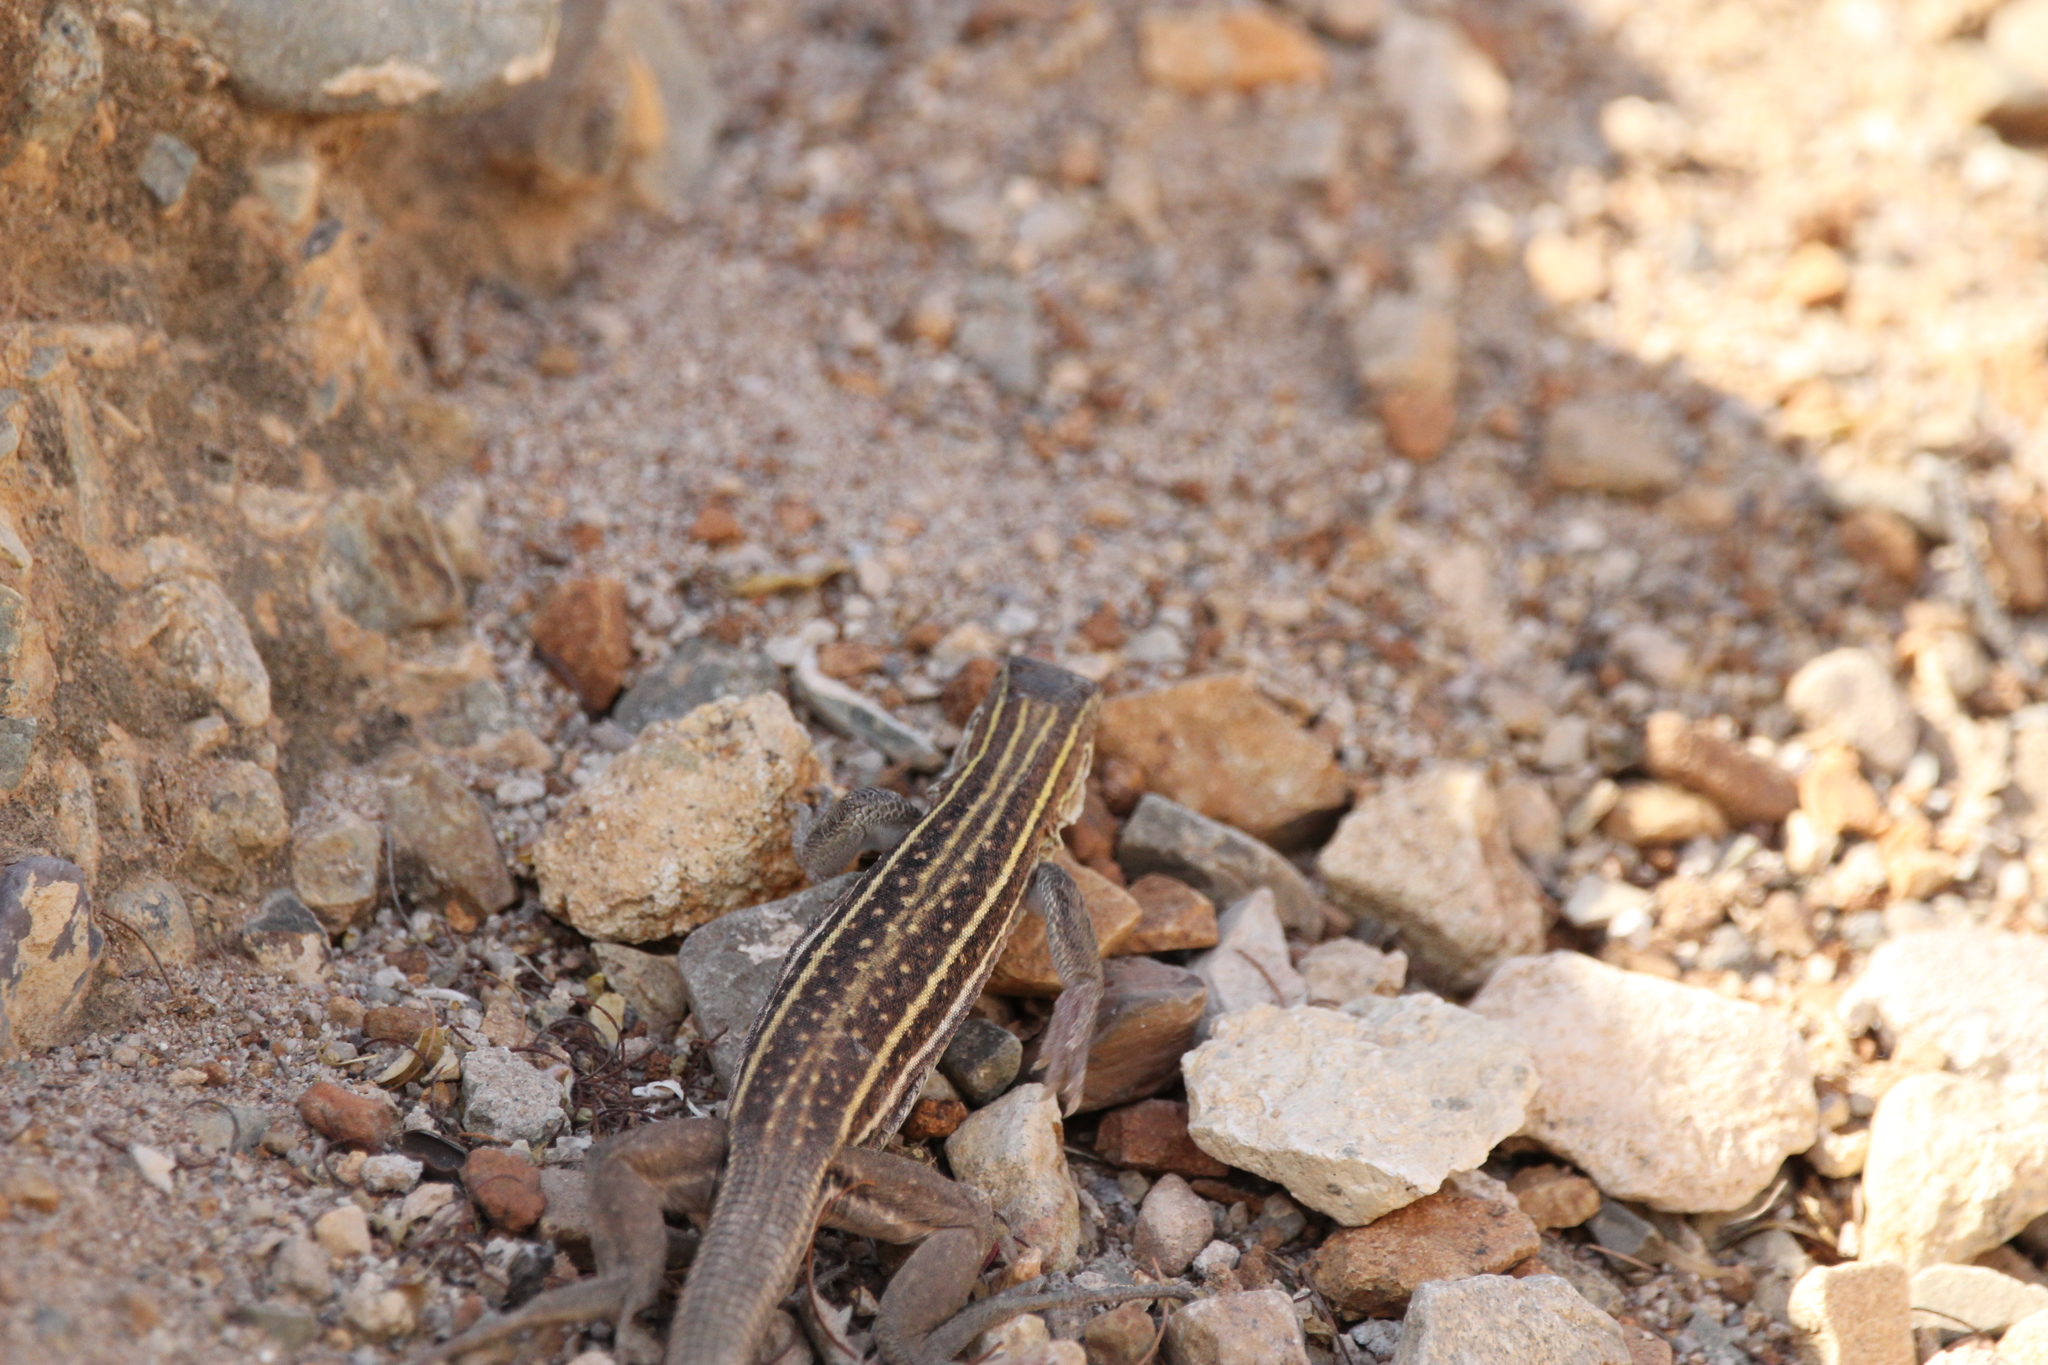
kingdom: Animalia
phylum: Chordata
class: Squamata
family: Teiidae
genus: Aspidoscelis
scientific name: Aspidoscelis sonorae
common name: Sonoran spotted whiptail
